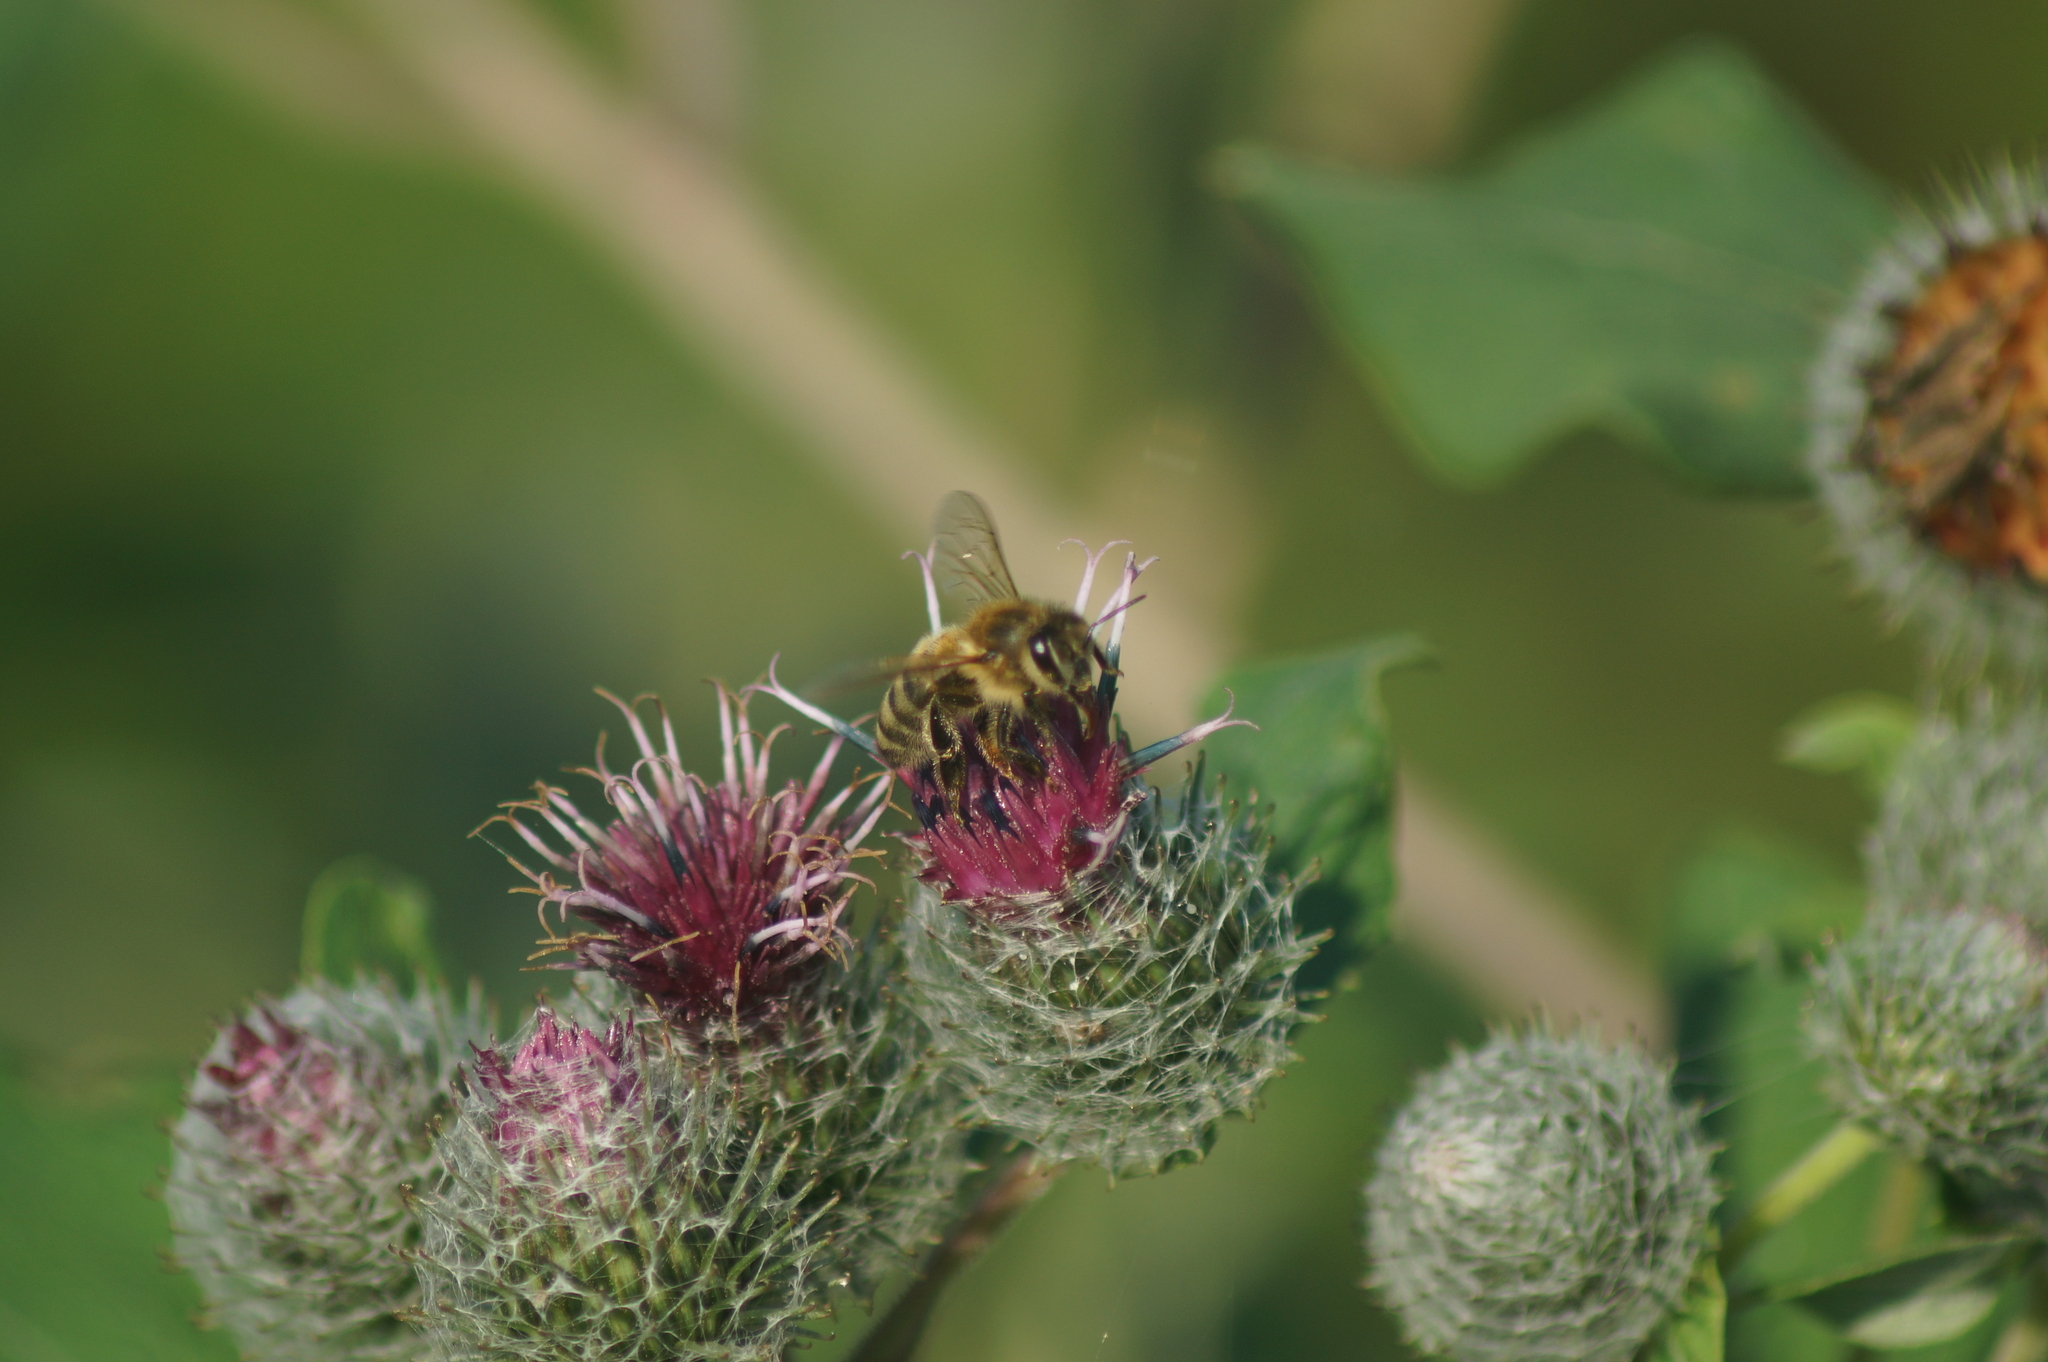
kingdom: Animalia
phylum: Arthropoda
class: Insecta
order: Hymenoptera
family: Apidae
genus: Apis
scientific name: Apis mellifera
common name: Honey bee
